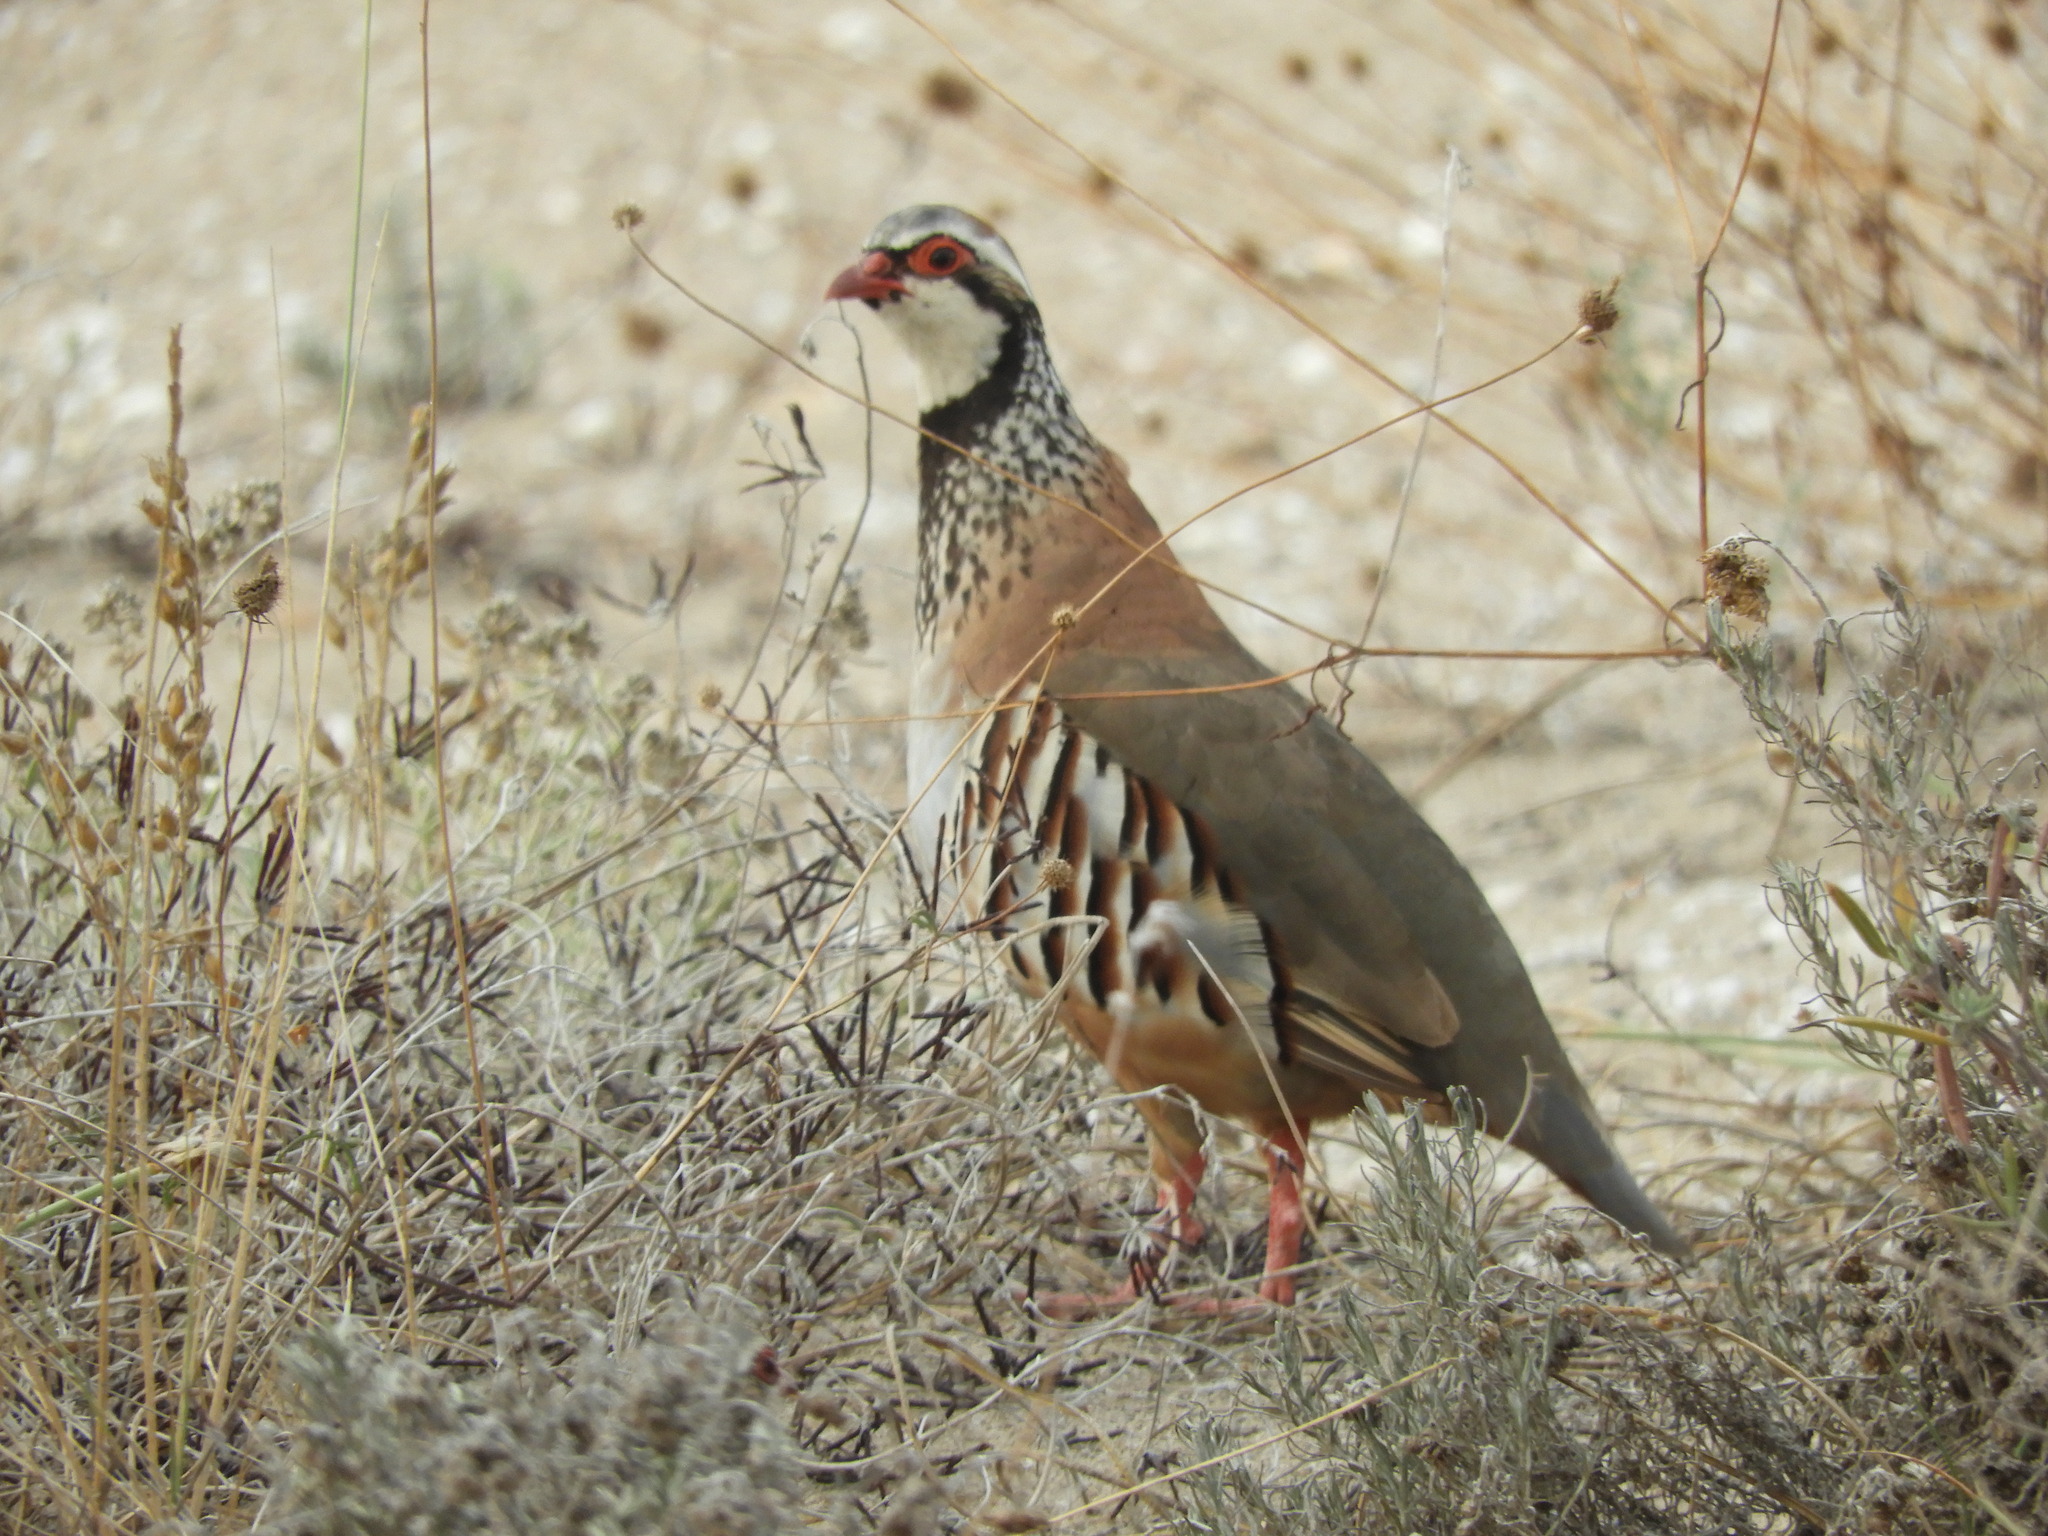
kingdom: Animalia
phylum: Chordata
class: Aves
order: Galliformes
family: Phasianidae
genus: Alectoris
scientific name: Alectoris rufa
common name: Red-legged partridge
